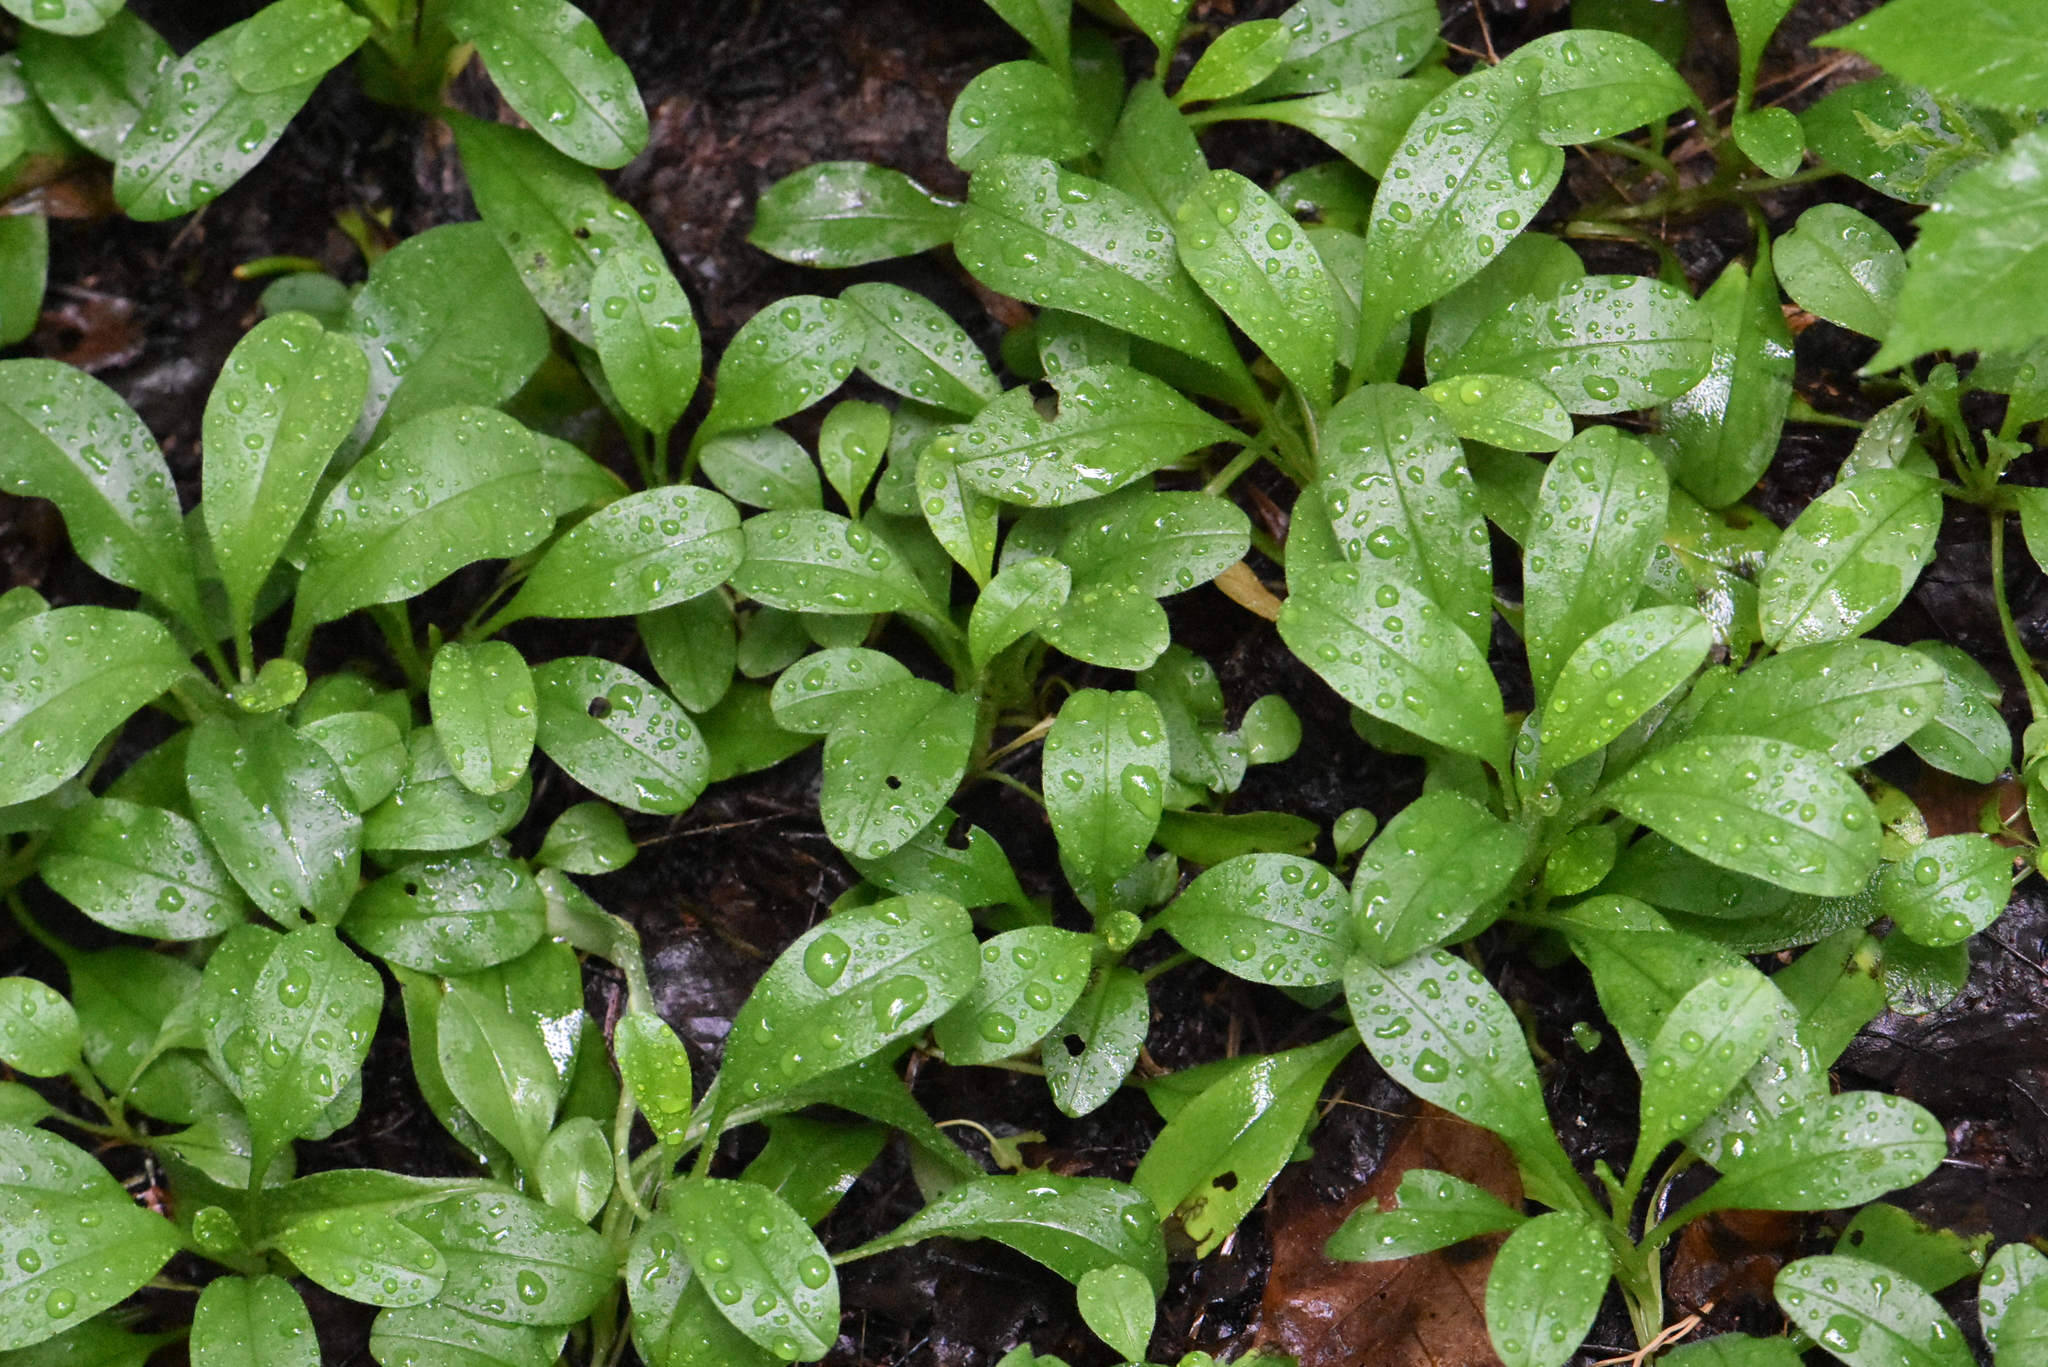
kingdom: Plantae
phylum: Tracheophyta
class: Magnoliopsida
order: Boraginales
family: Boraginaceae
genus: Myosotis
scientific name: Myosotis sparsiflora
